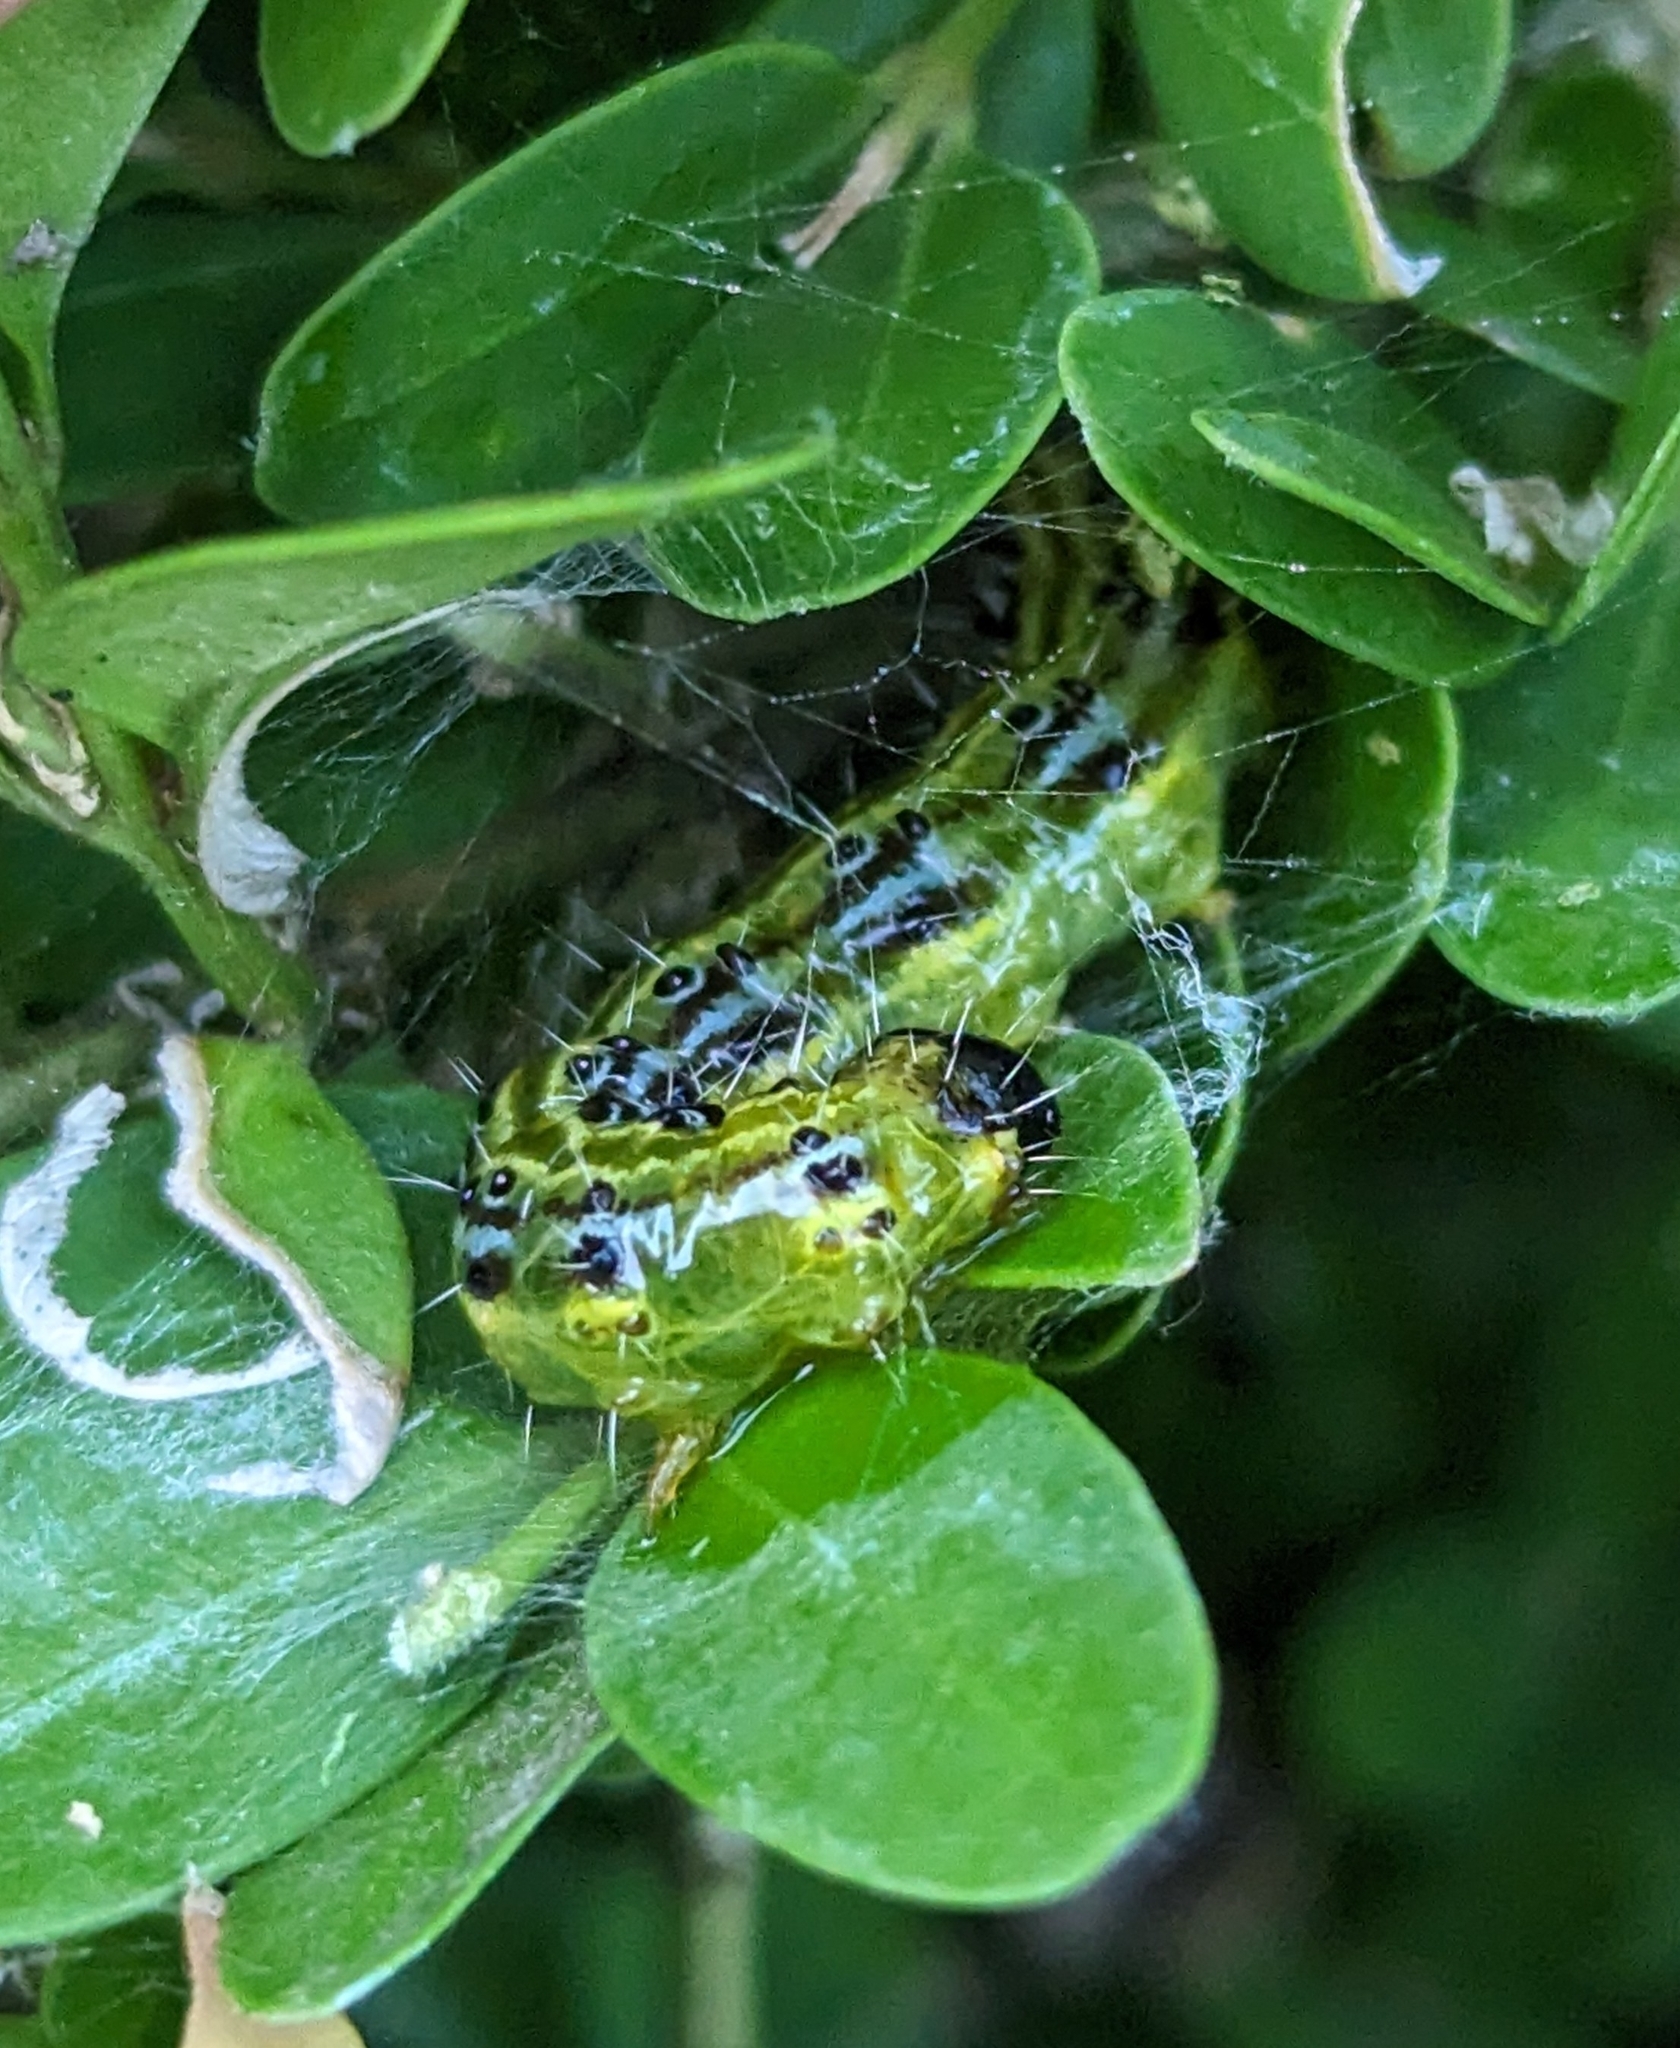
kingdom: Animalia
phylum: Arthropoda
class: Insecta
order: Lepidoptera
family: Crambidae
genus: Cydalima
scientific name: Cydalima perspectalis
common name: Box tree moth
